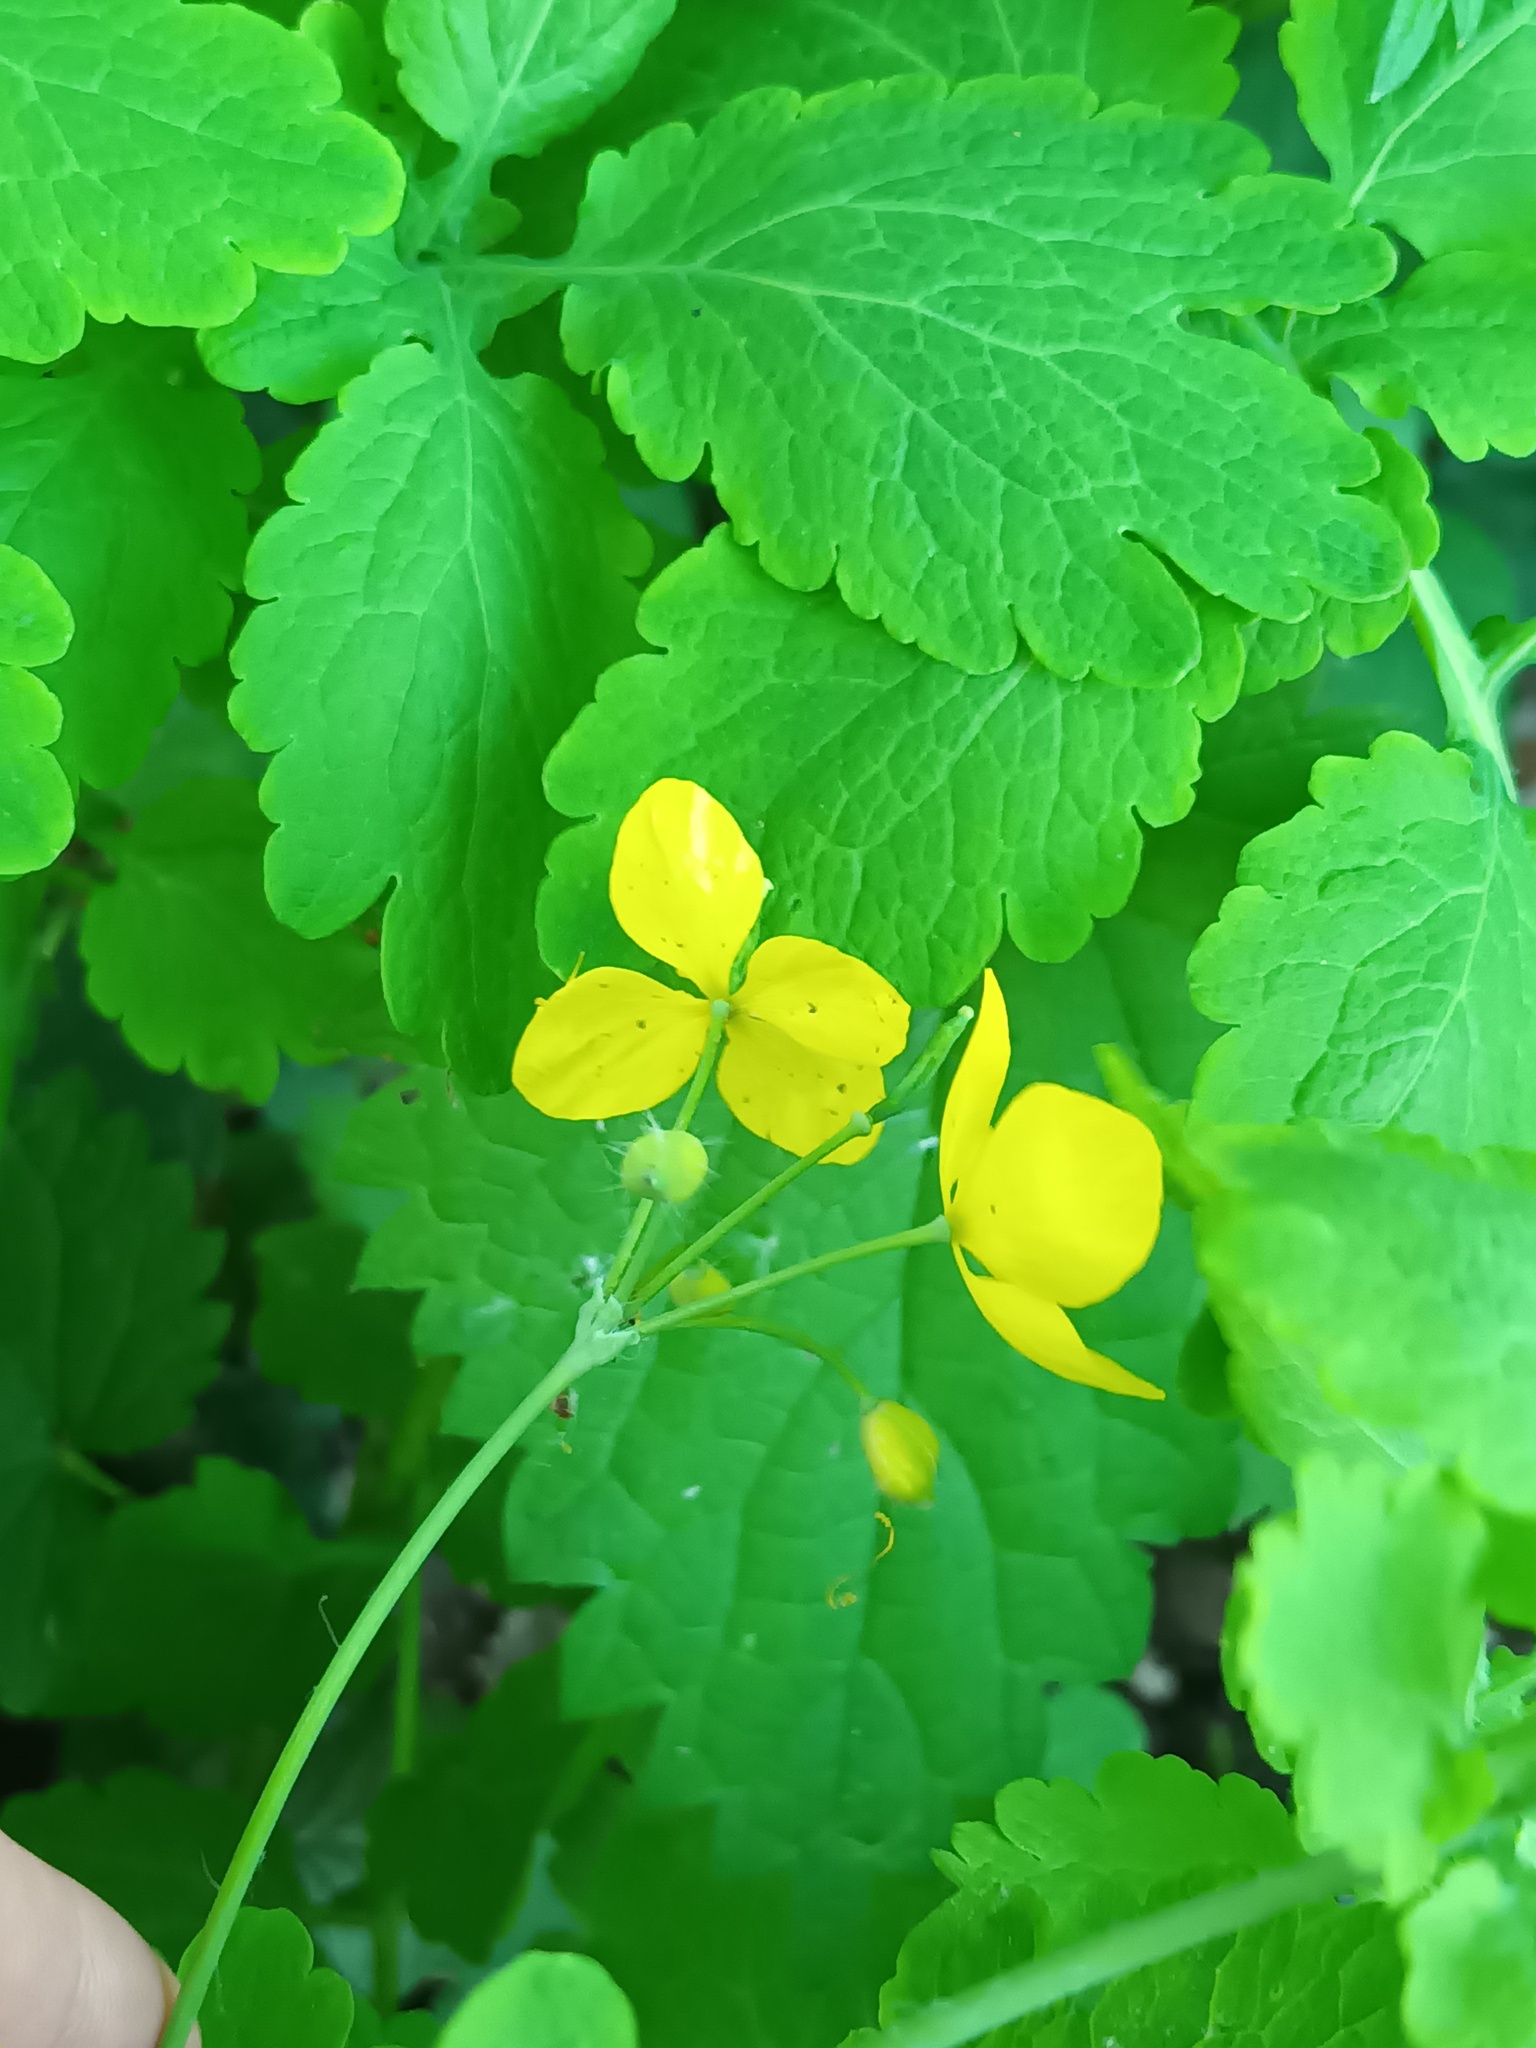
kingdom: Plantae
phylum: Tracheophyta
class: Magnoliopsida
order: Ranunculales
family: Papaveraceae
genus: Chelidonium
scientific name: Chelidonium majus
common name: Greater celandine
